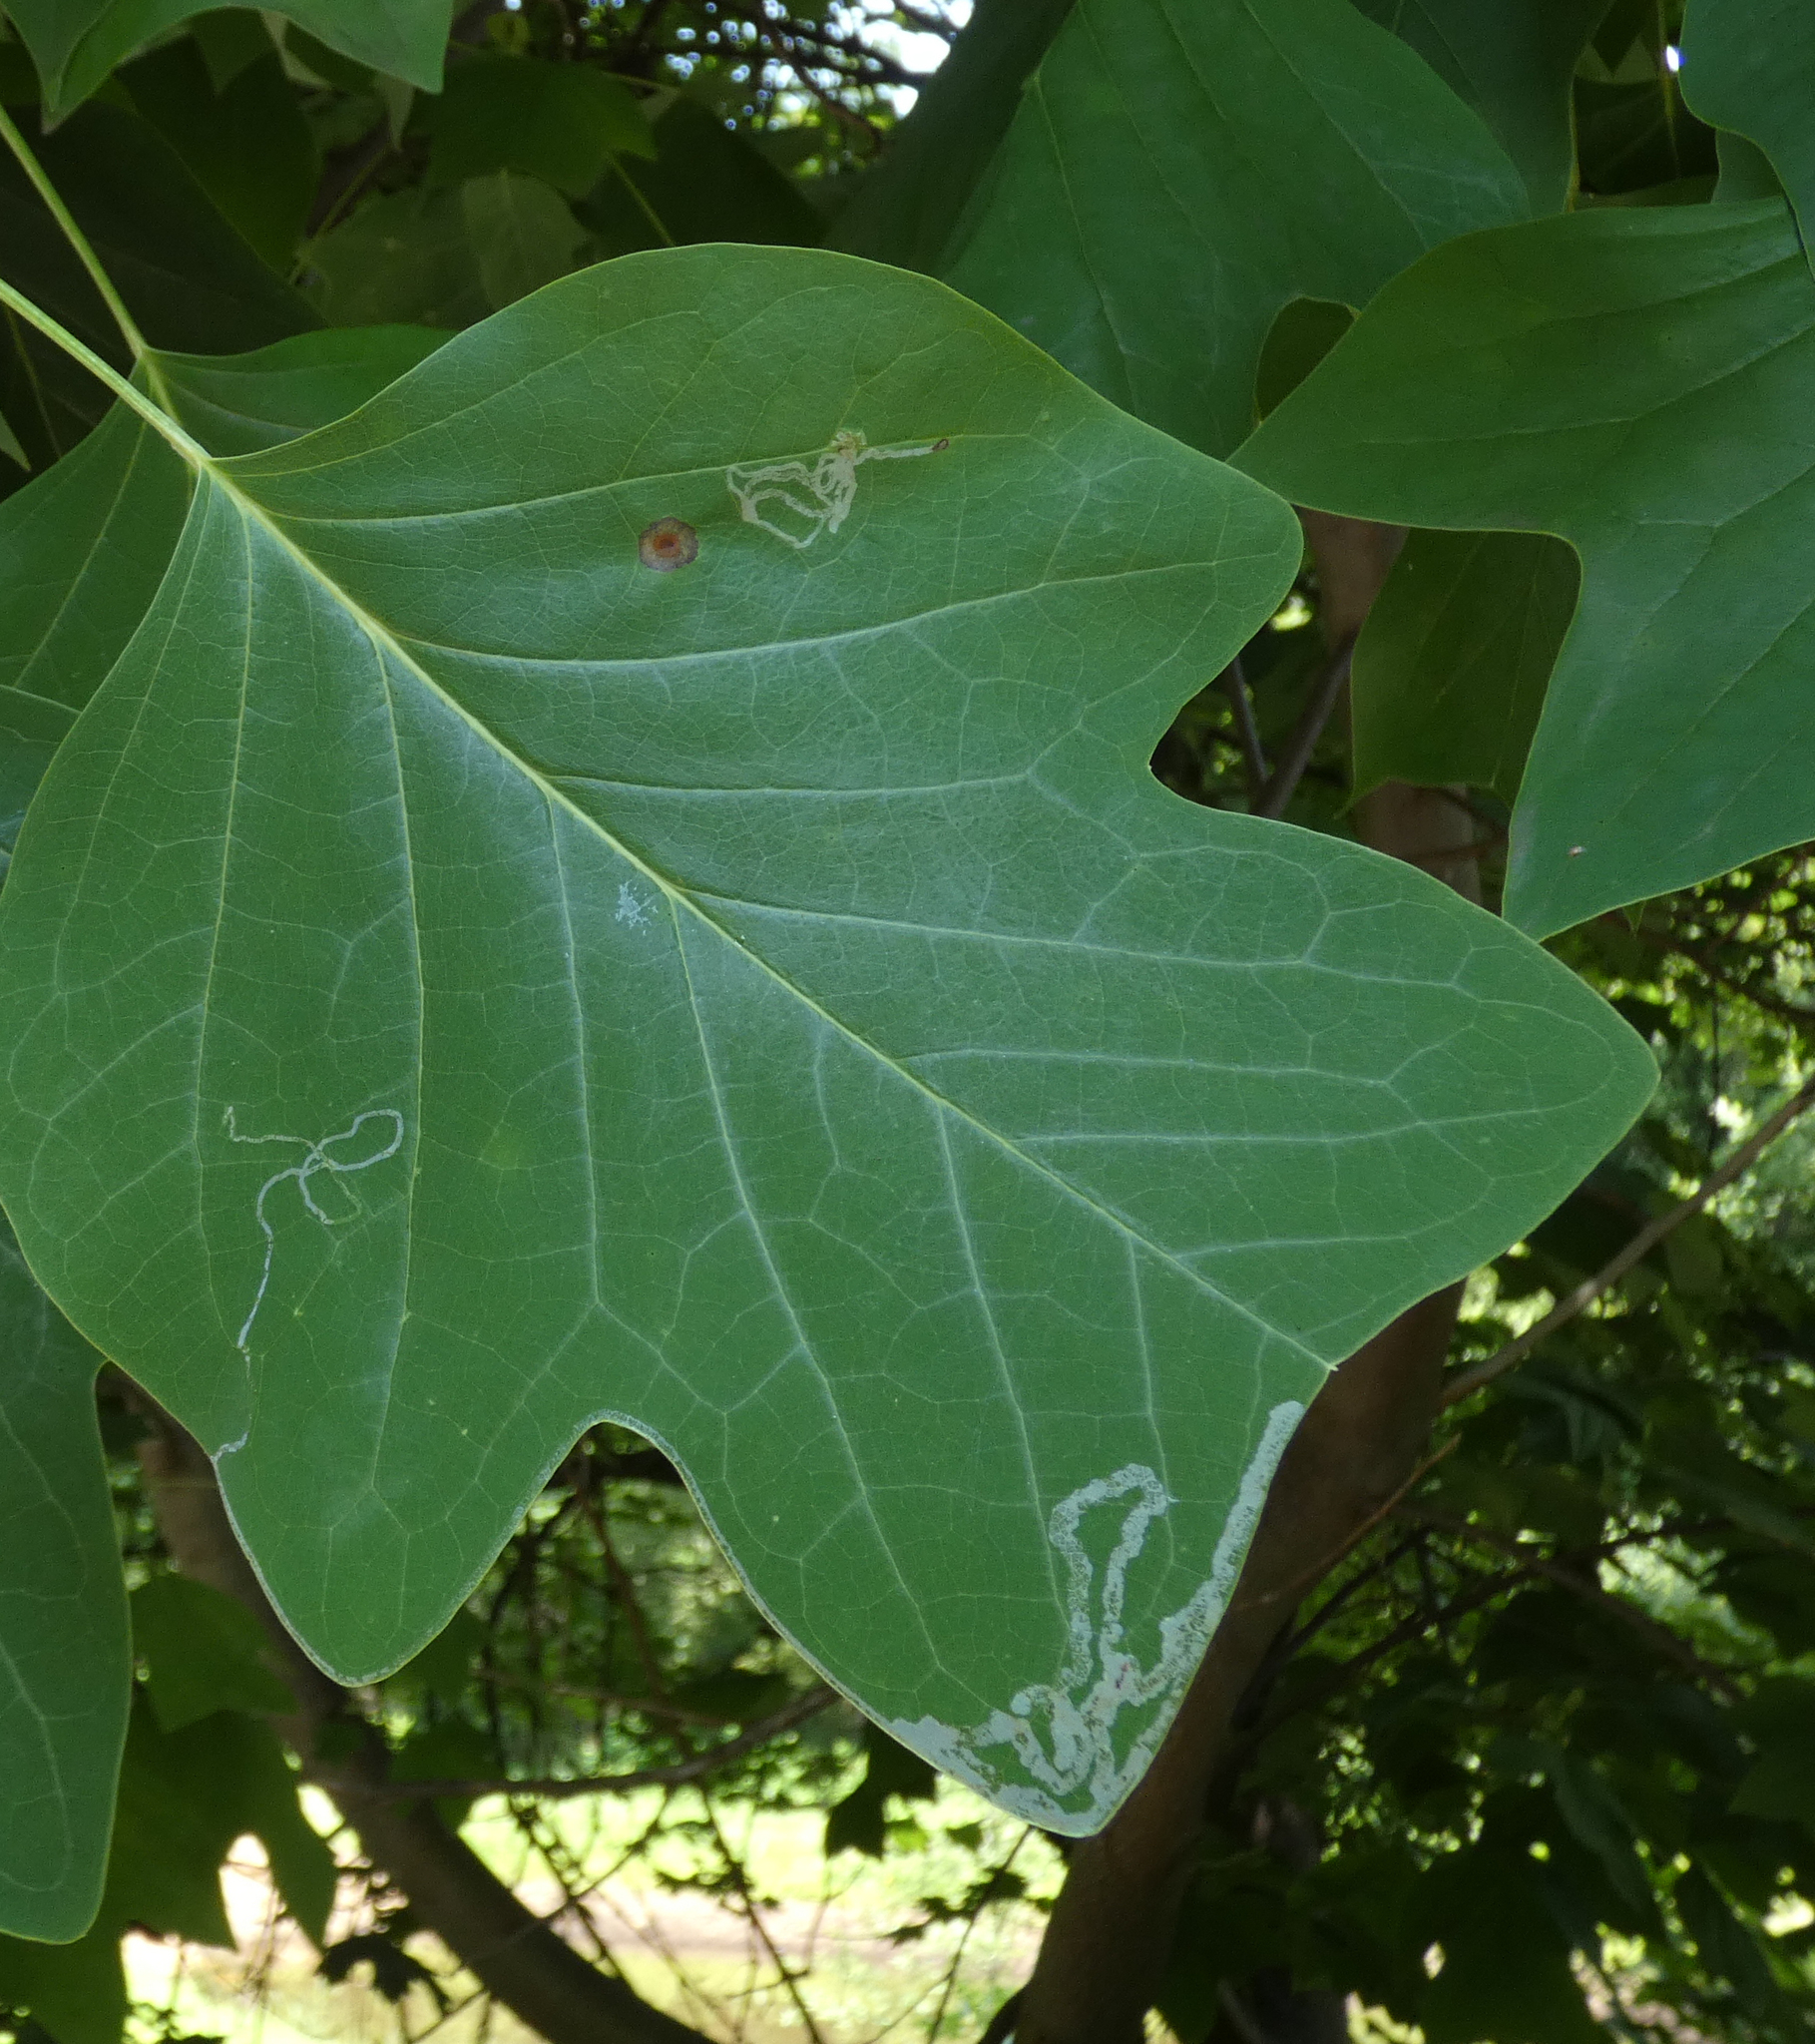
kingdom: Animalia
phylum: Arthropoda
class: Insecta
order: Lepidoptera
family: Gracillariidae
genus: Phyllocnistis
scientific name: Phyllocnistis liriodendronella
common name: Tulip tree leaf miner
